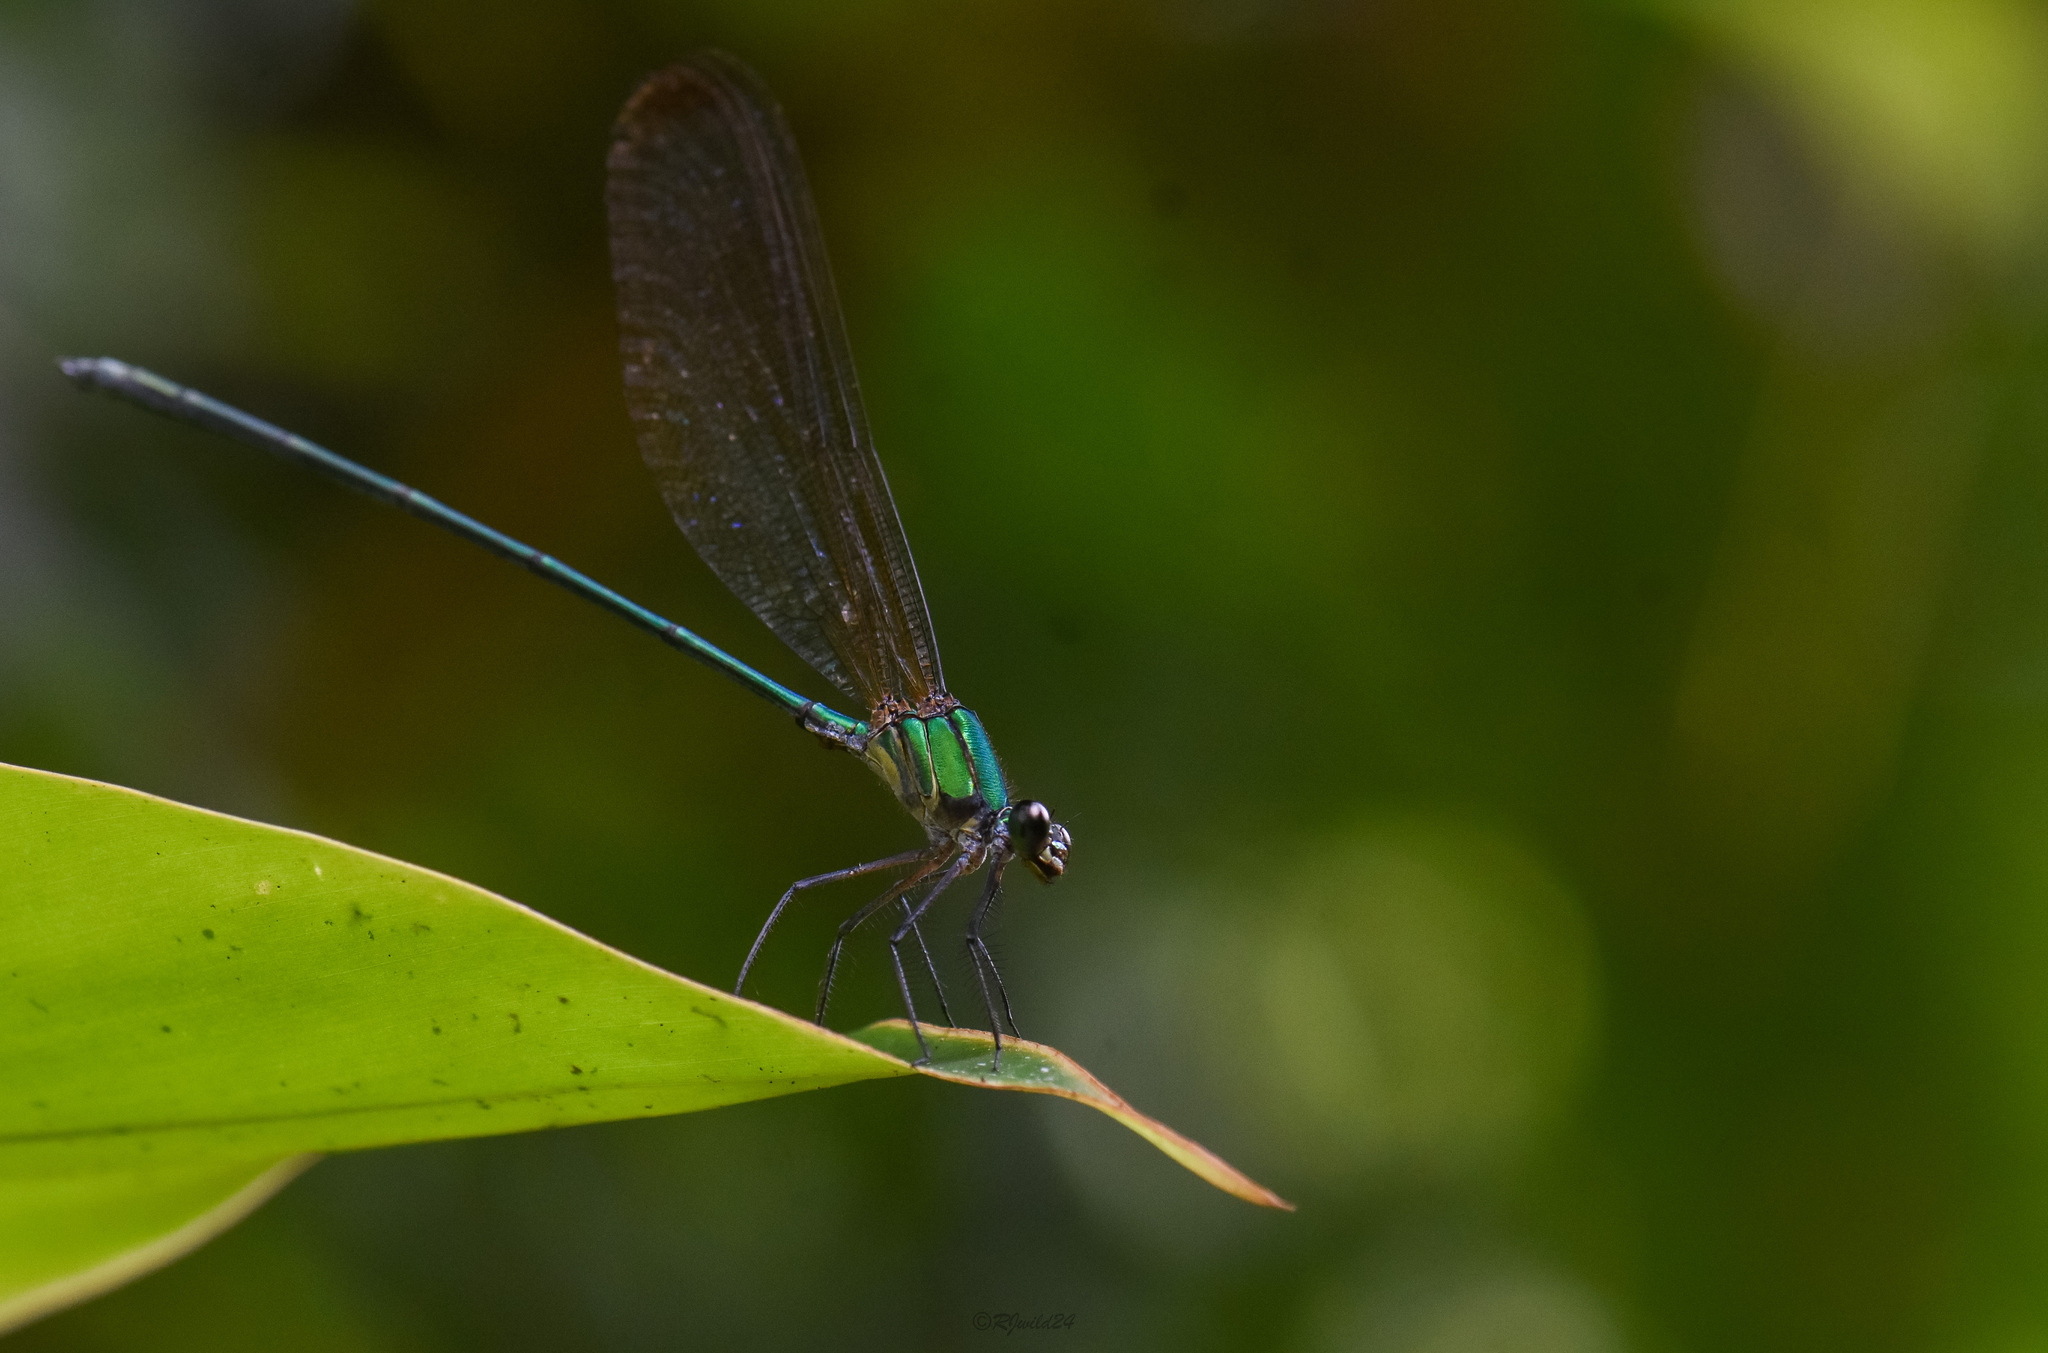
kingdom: Animalia
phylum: Arthropoda
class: Insecta
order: Odonata
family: Calopterygidae
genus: Vestalis
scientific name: Vestalis gracilis
